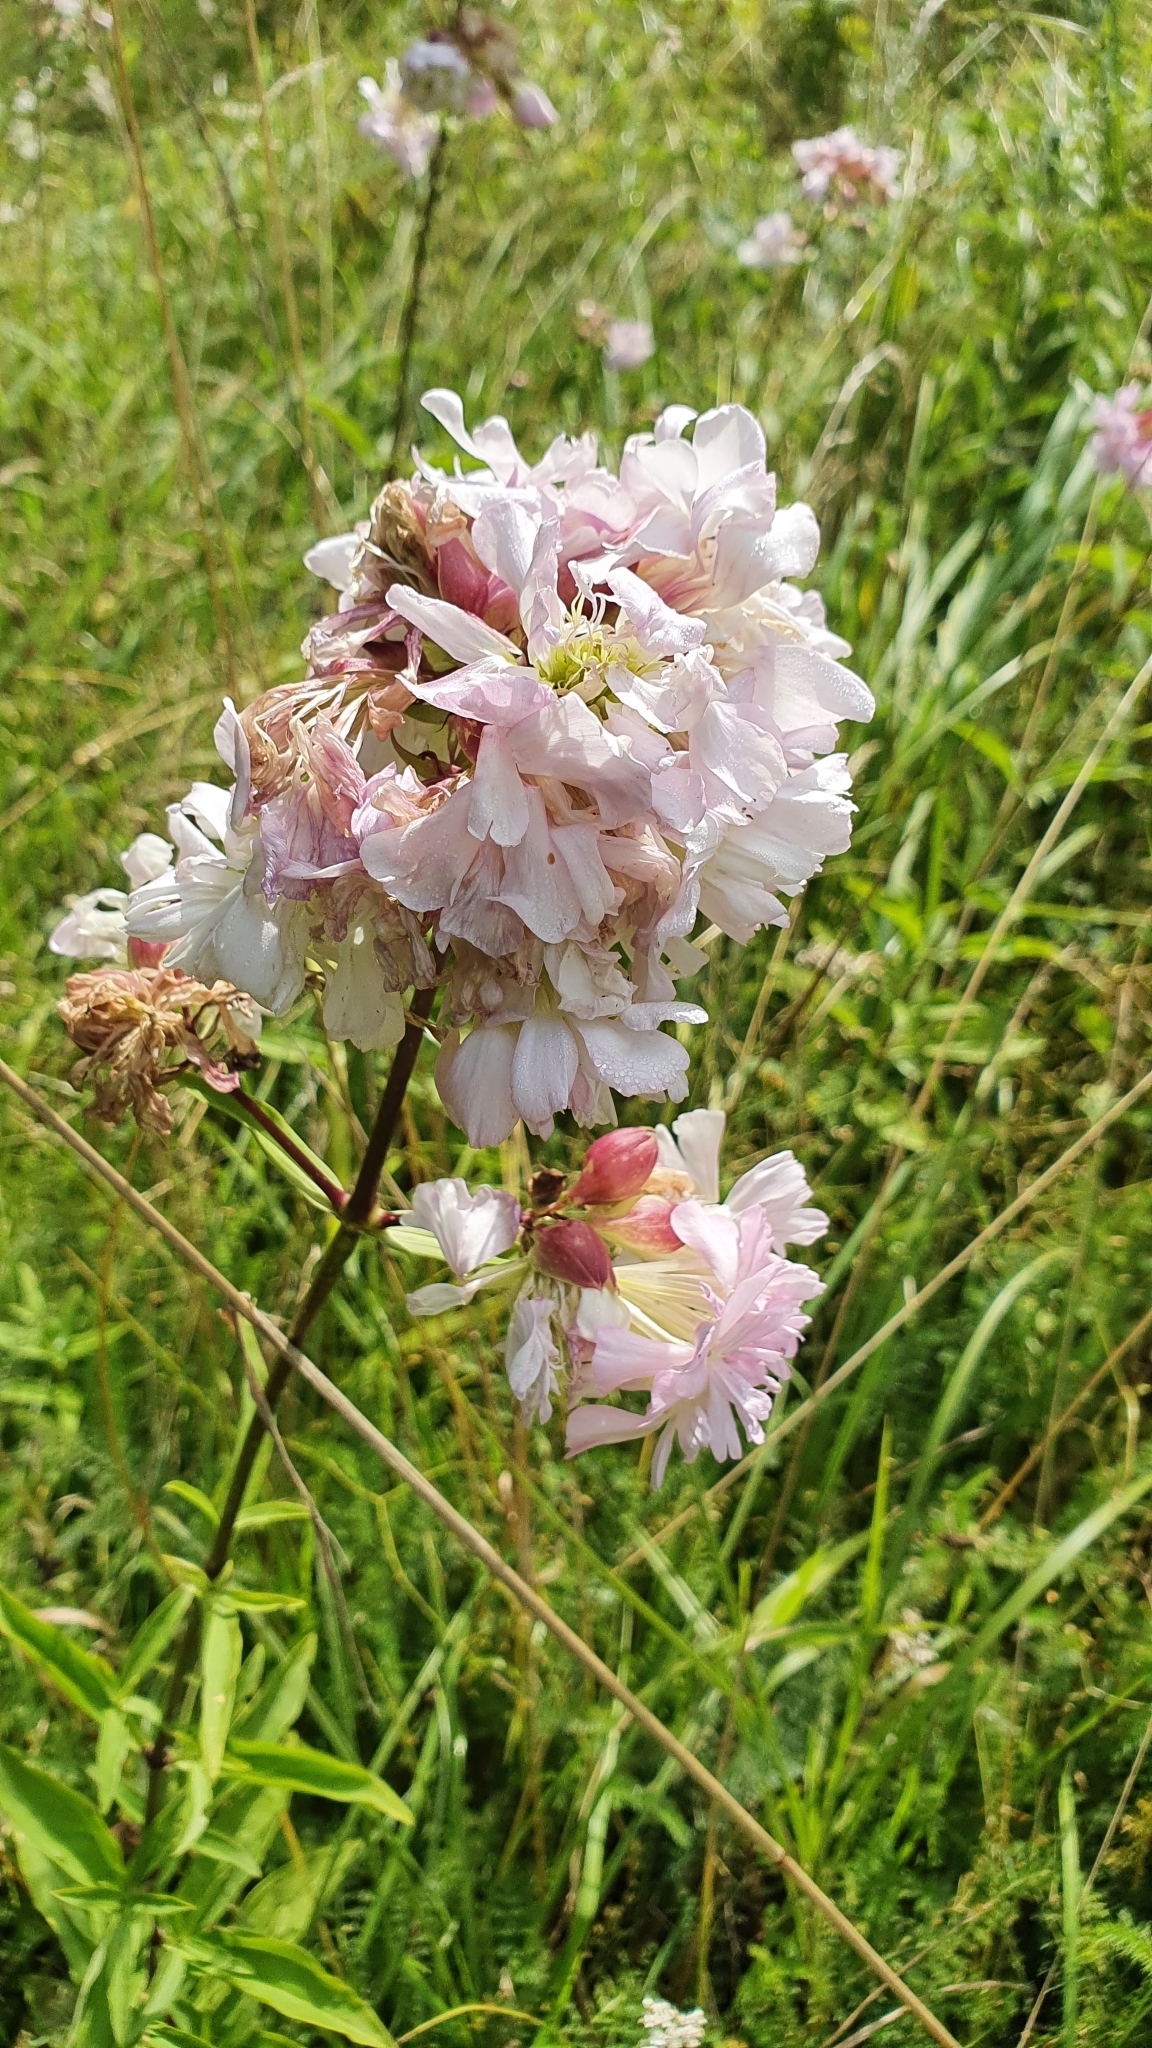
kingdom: Plantae
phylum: Tracheophyta
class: Magnoliopsida
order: Caryophyllales
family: Caryophyllaceae
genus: Saponaria
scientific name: Saponaria officinalis
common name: Soapwort
